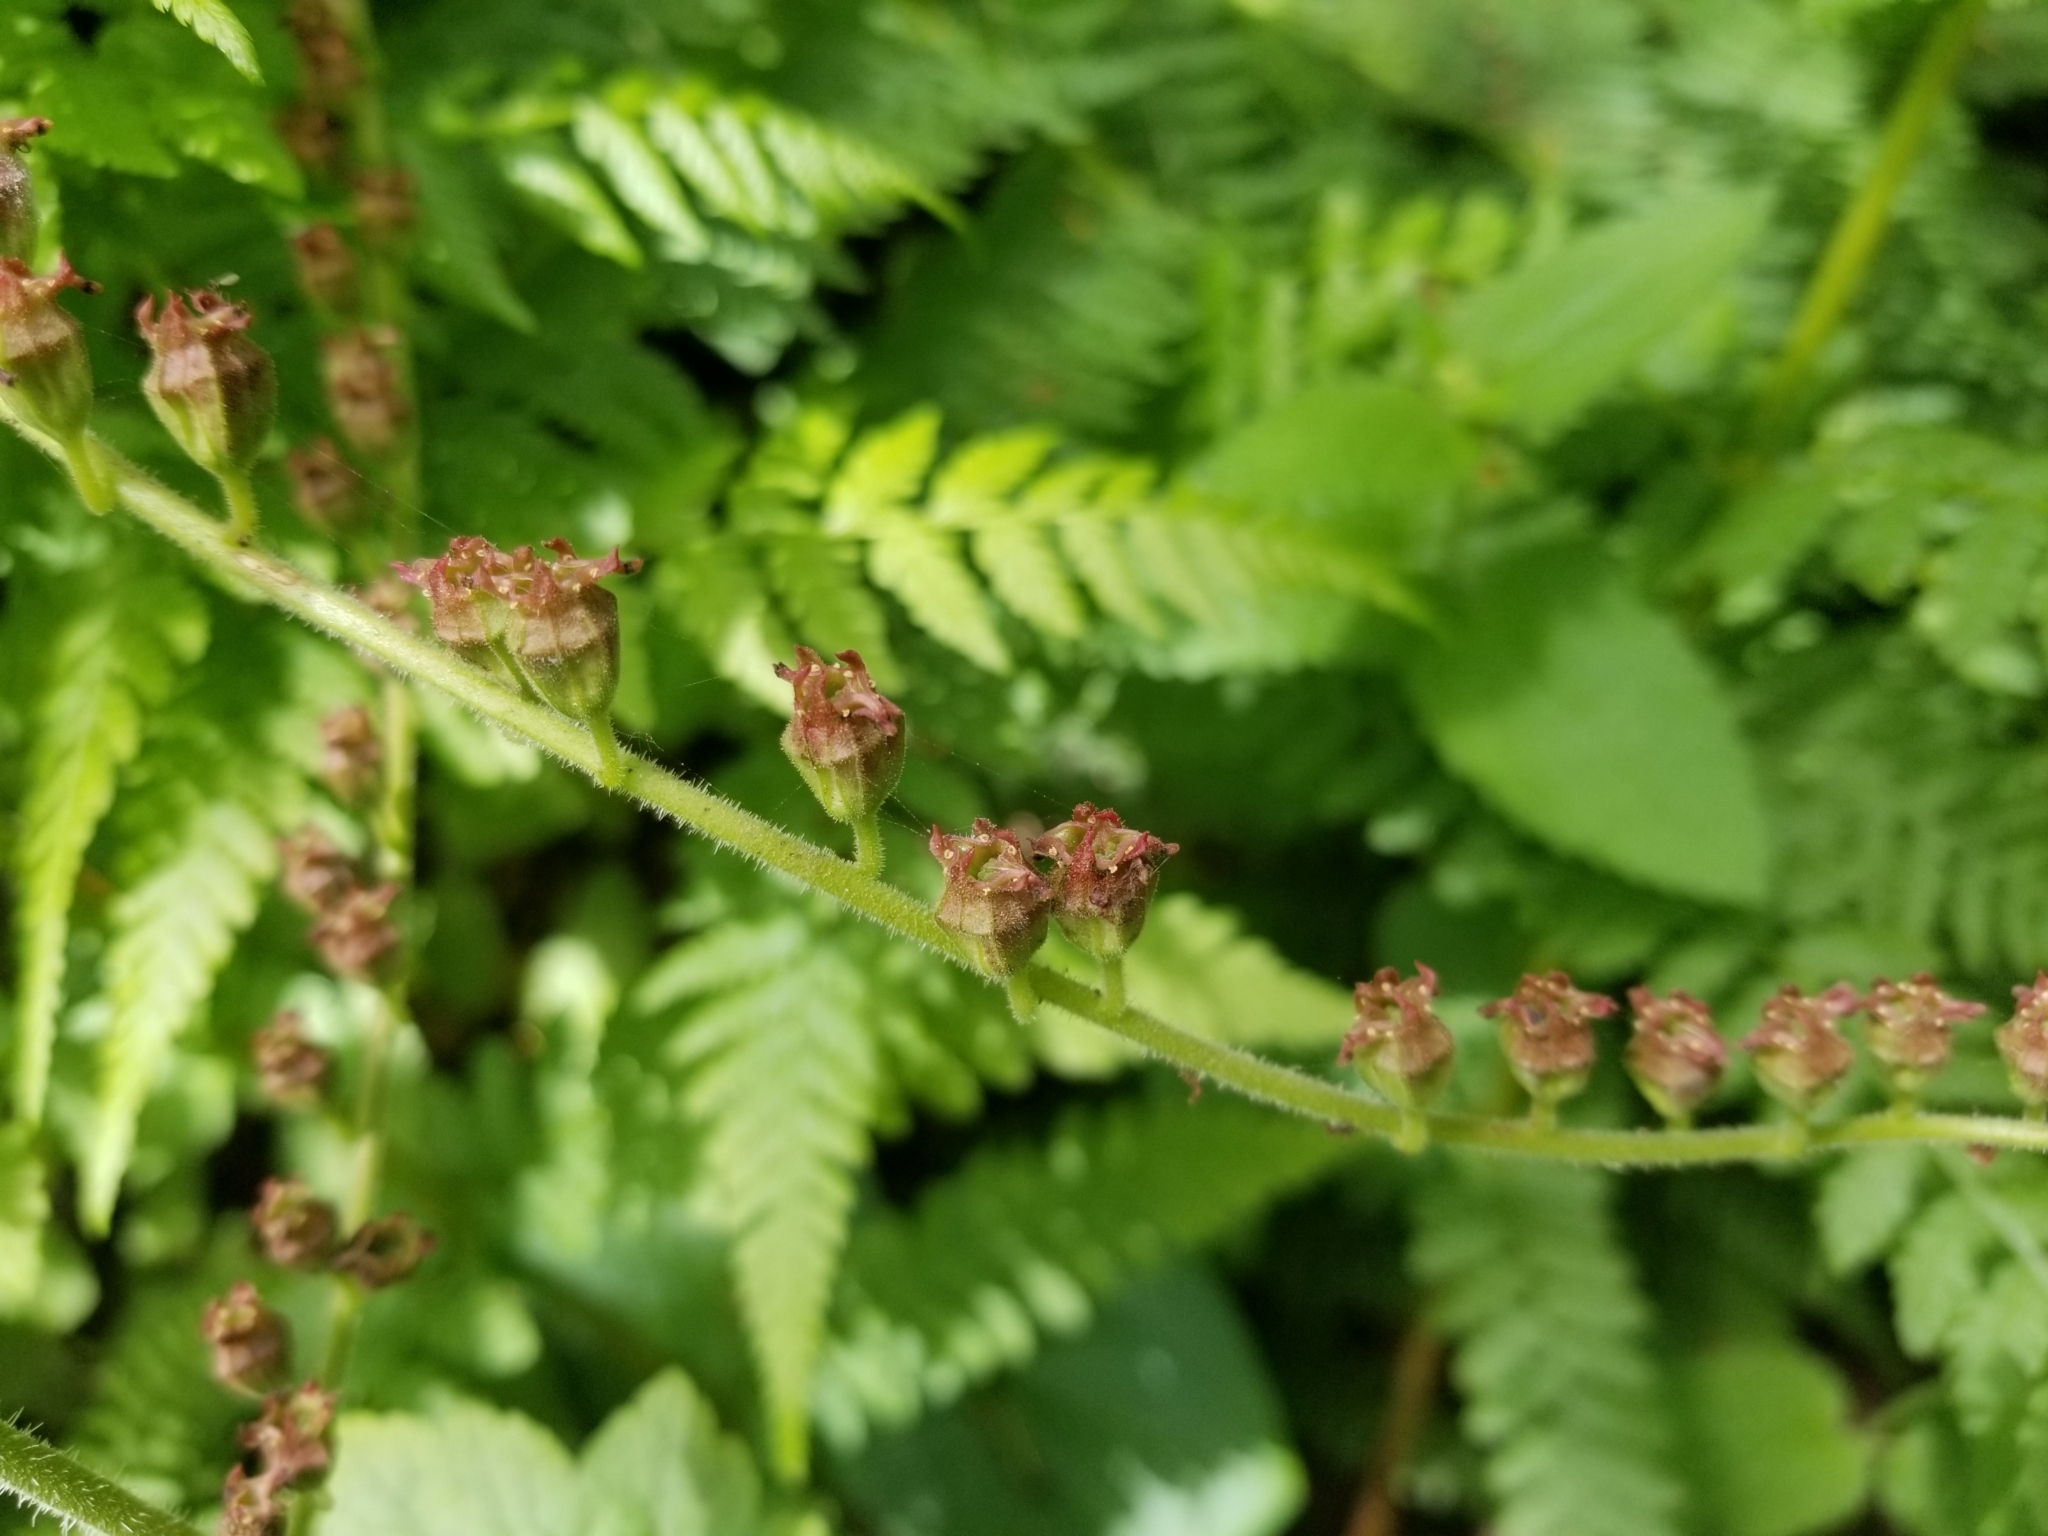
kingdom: Plantae
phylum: Tracheophyta
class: Magnoliopsida
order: Saxifragales
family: Saxifragaceae
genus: Tellima
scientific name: Tellima grandiflora
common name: Fringecups
